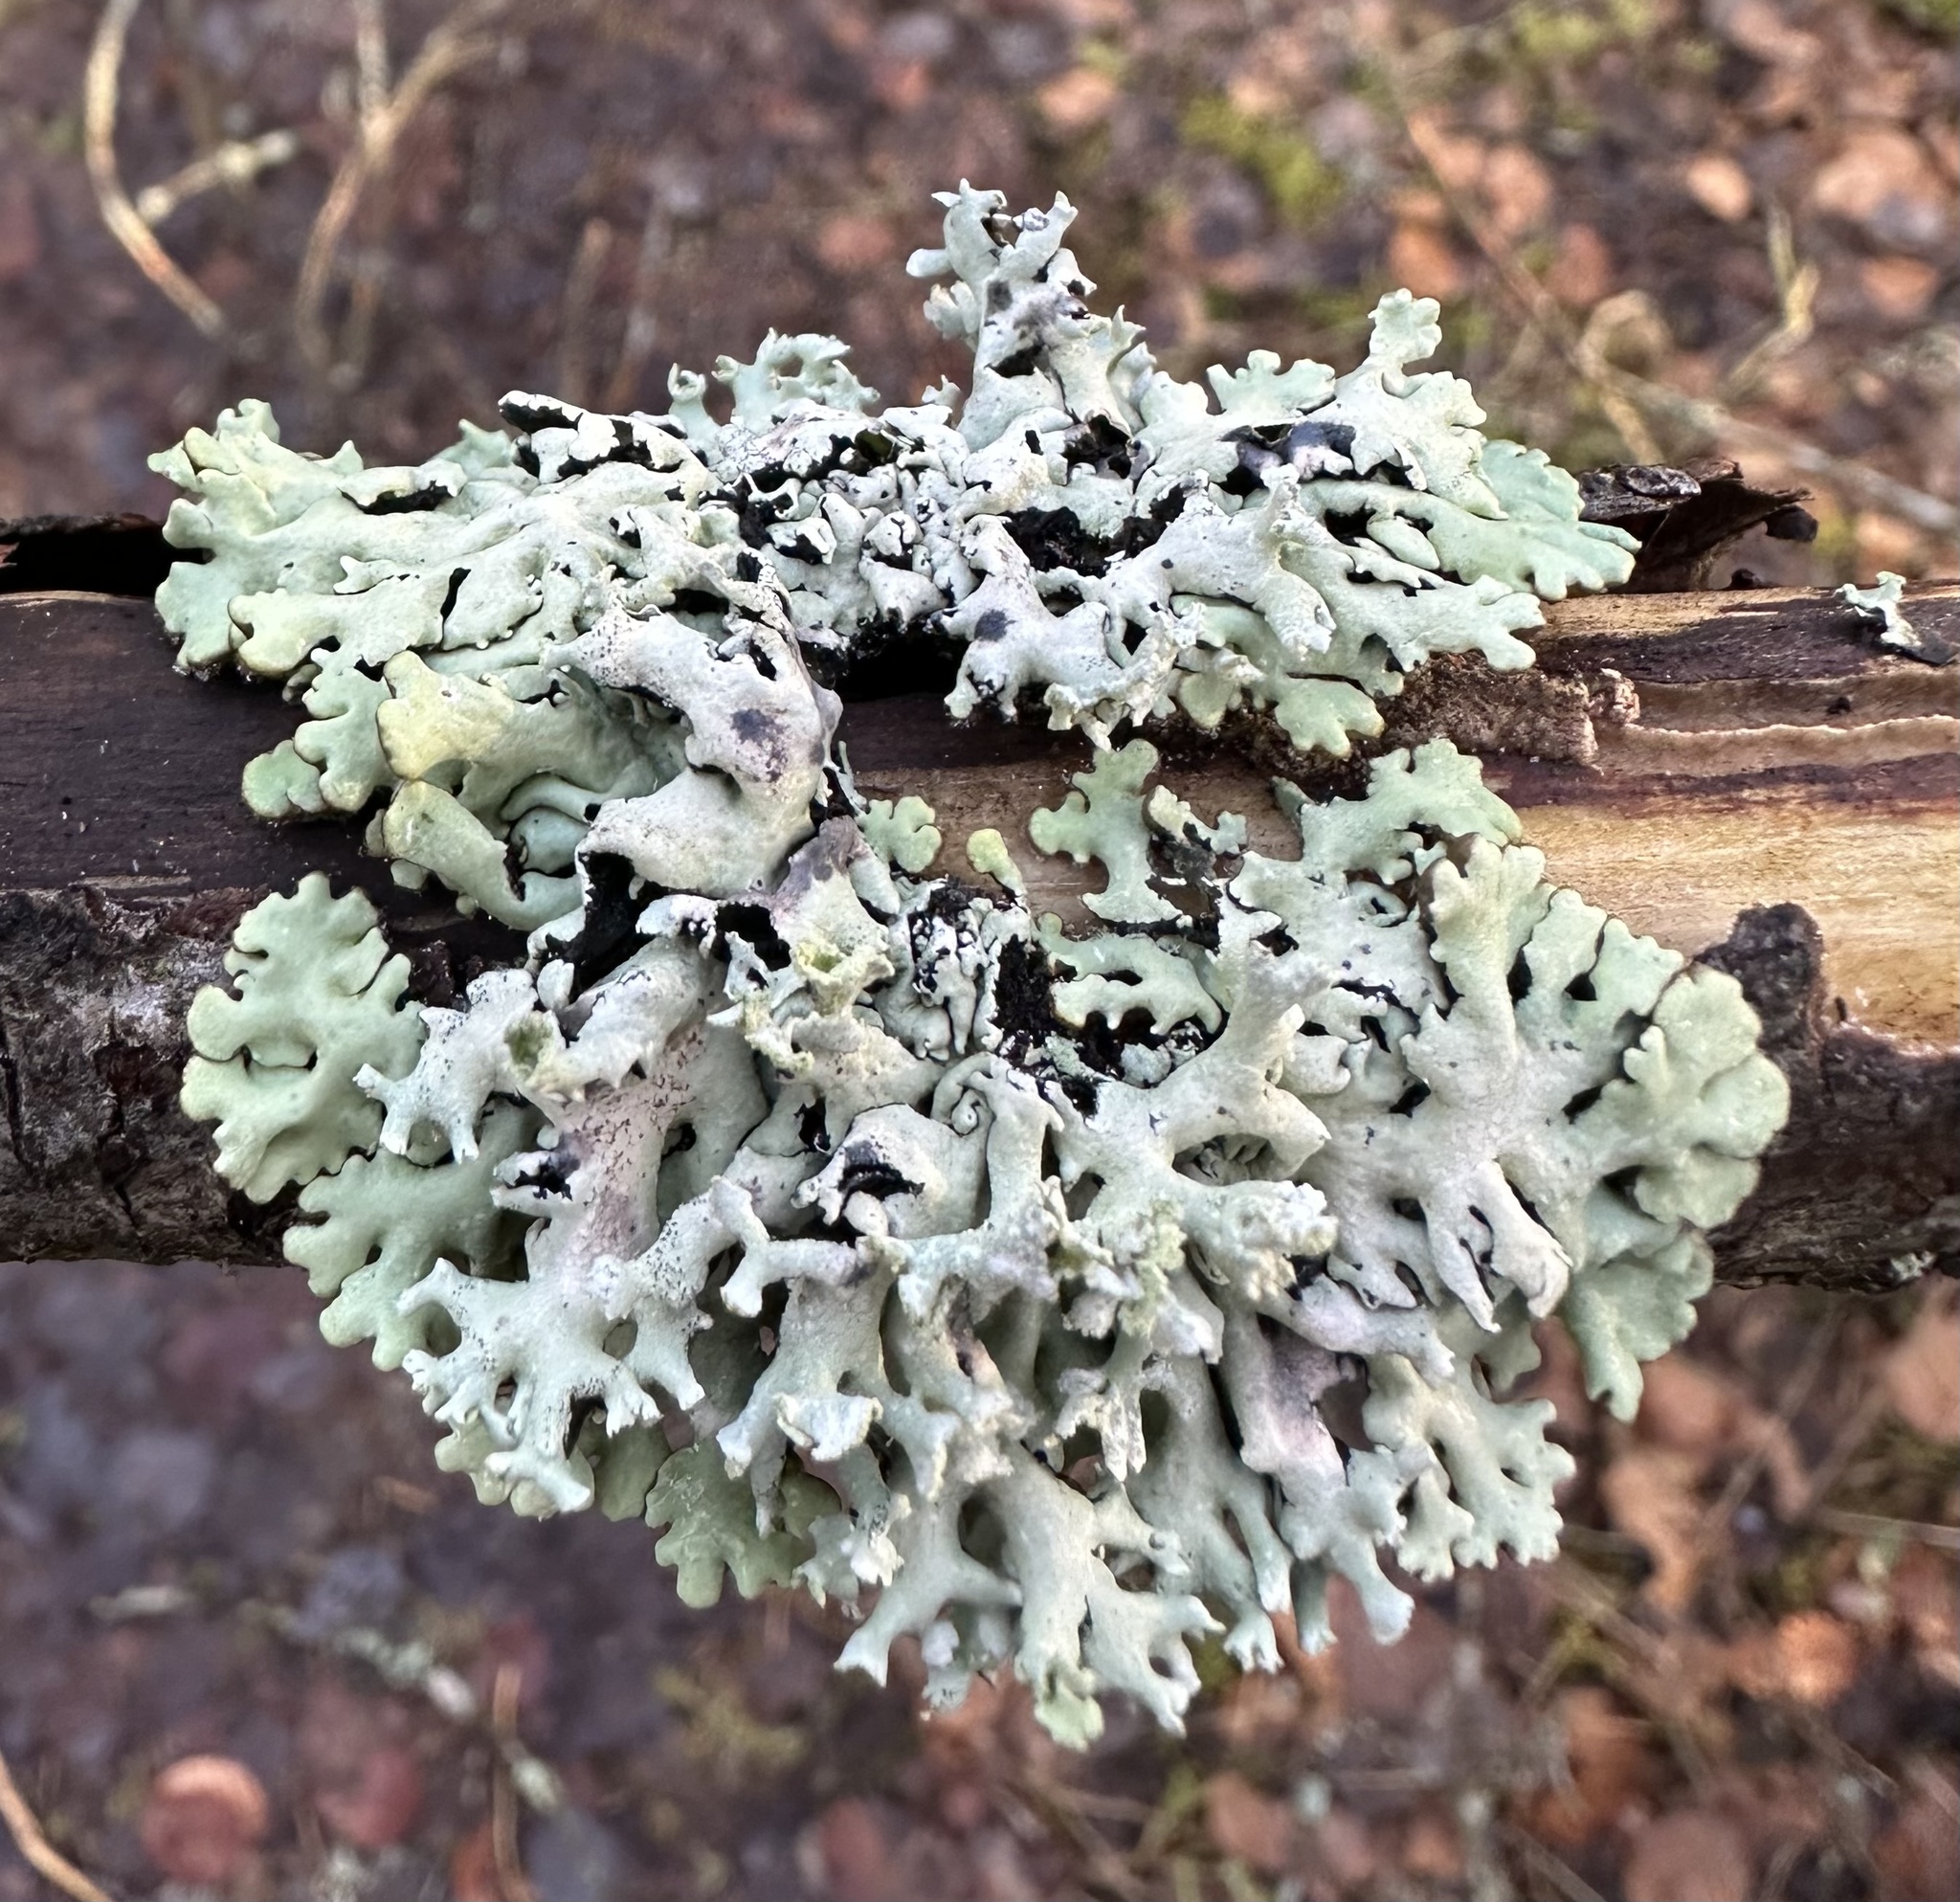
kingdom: Fungi
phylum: Ascomycota
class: Lecanoromycetes
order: Lecanorales
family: Parmeliaceae
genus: Hypogymnia
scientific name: Hypogymnia physodes
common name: Dark crottle
